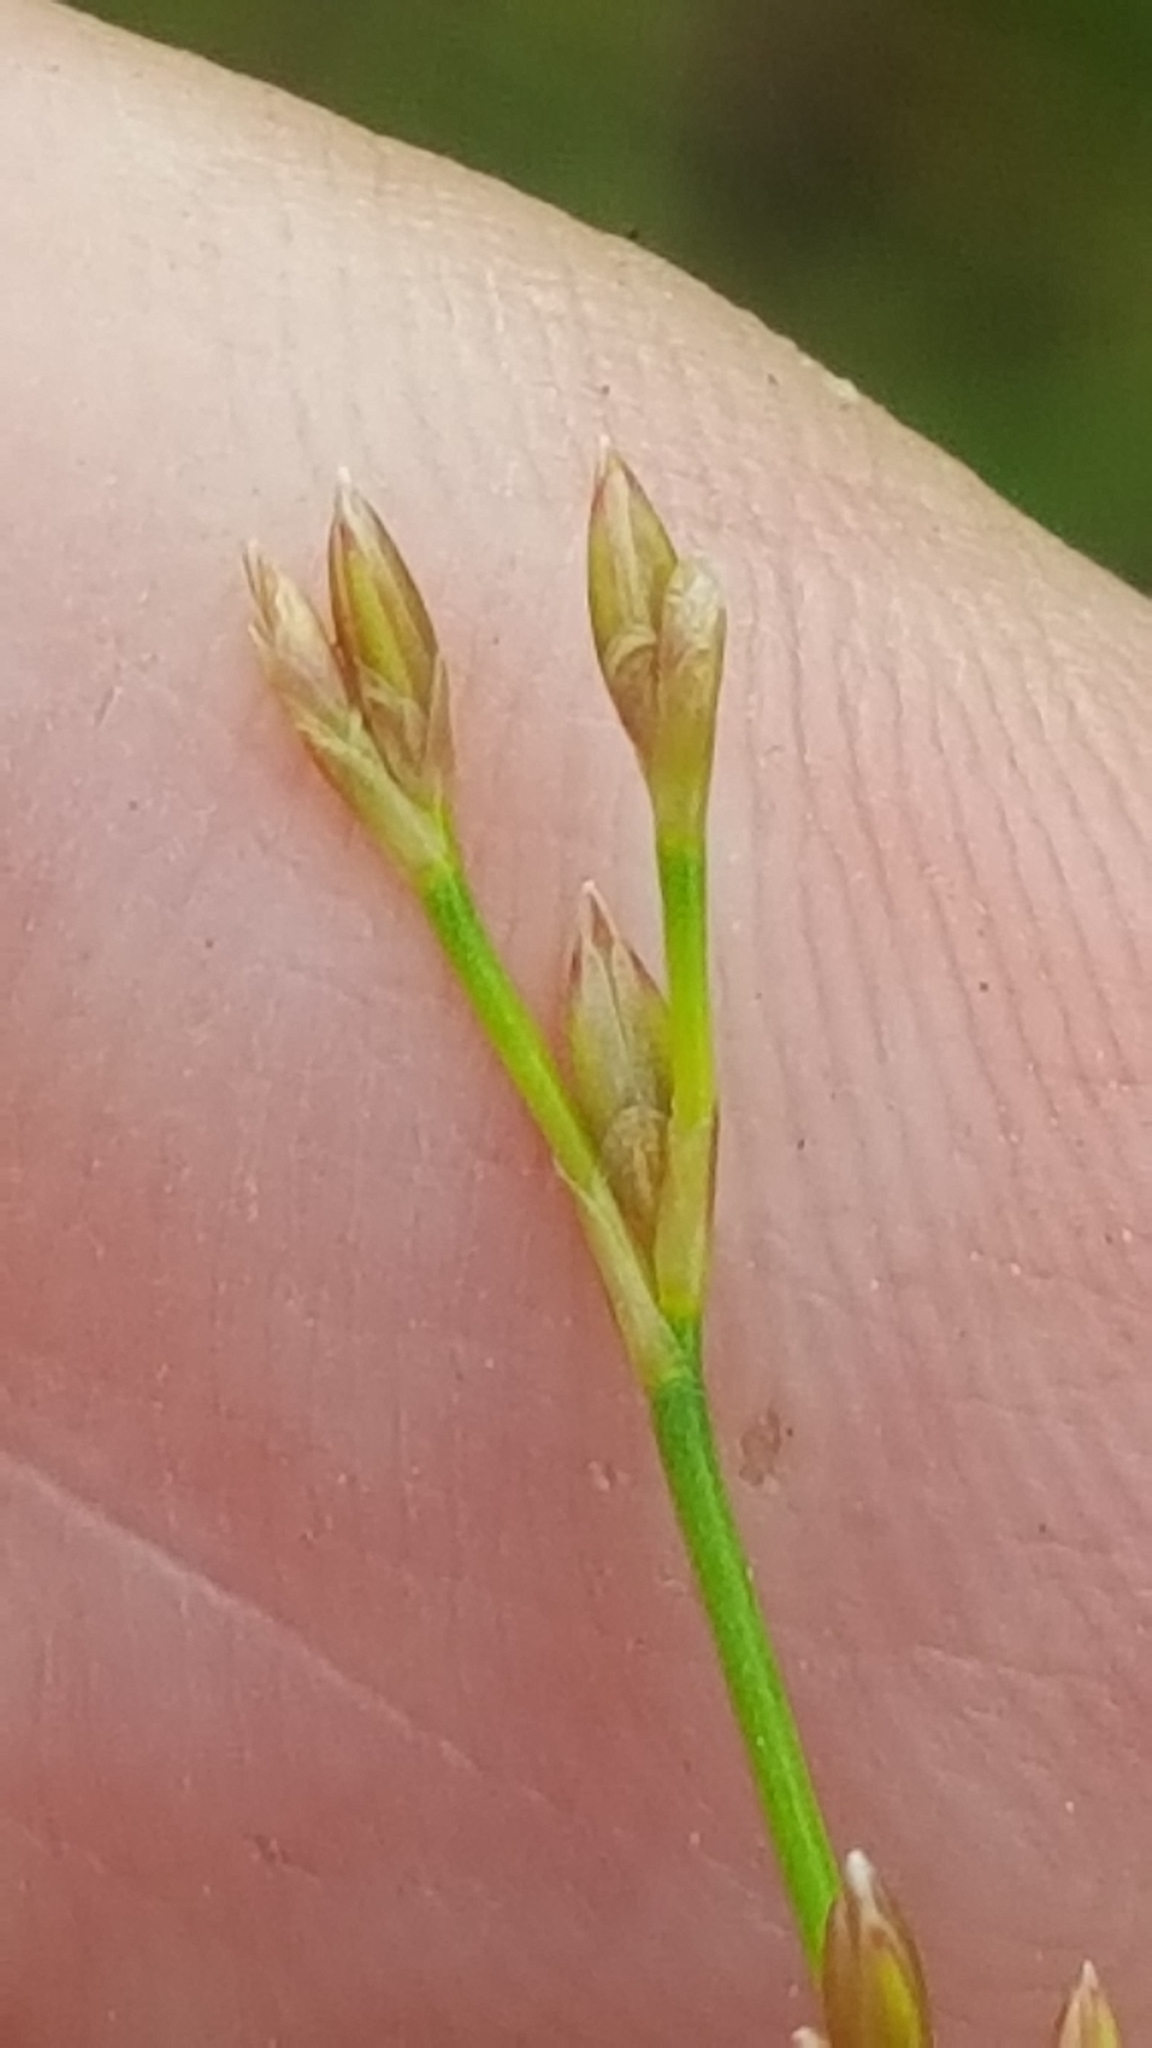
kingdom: Plantae
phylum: Tracheophyta
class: Liliopsida
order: Poales
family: Juncaceae
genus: Juncus
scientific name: Juncus pelocarpus
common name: Brown-fruited rush
